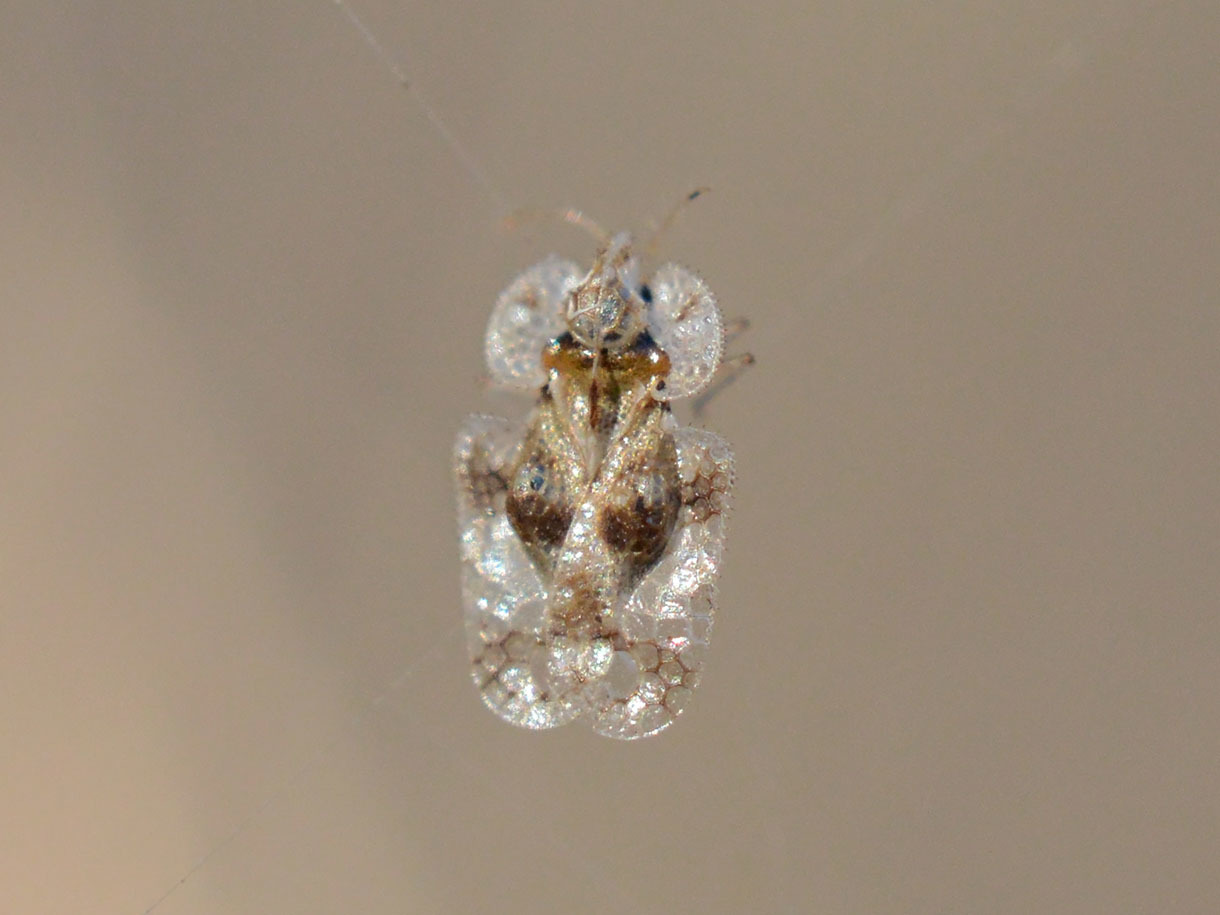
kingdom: Animalia
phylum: Arthropoda
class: Insecta
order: Hemiptera
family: Tingidae
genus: Corythucha
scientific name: Corythucha arcuata
